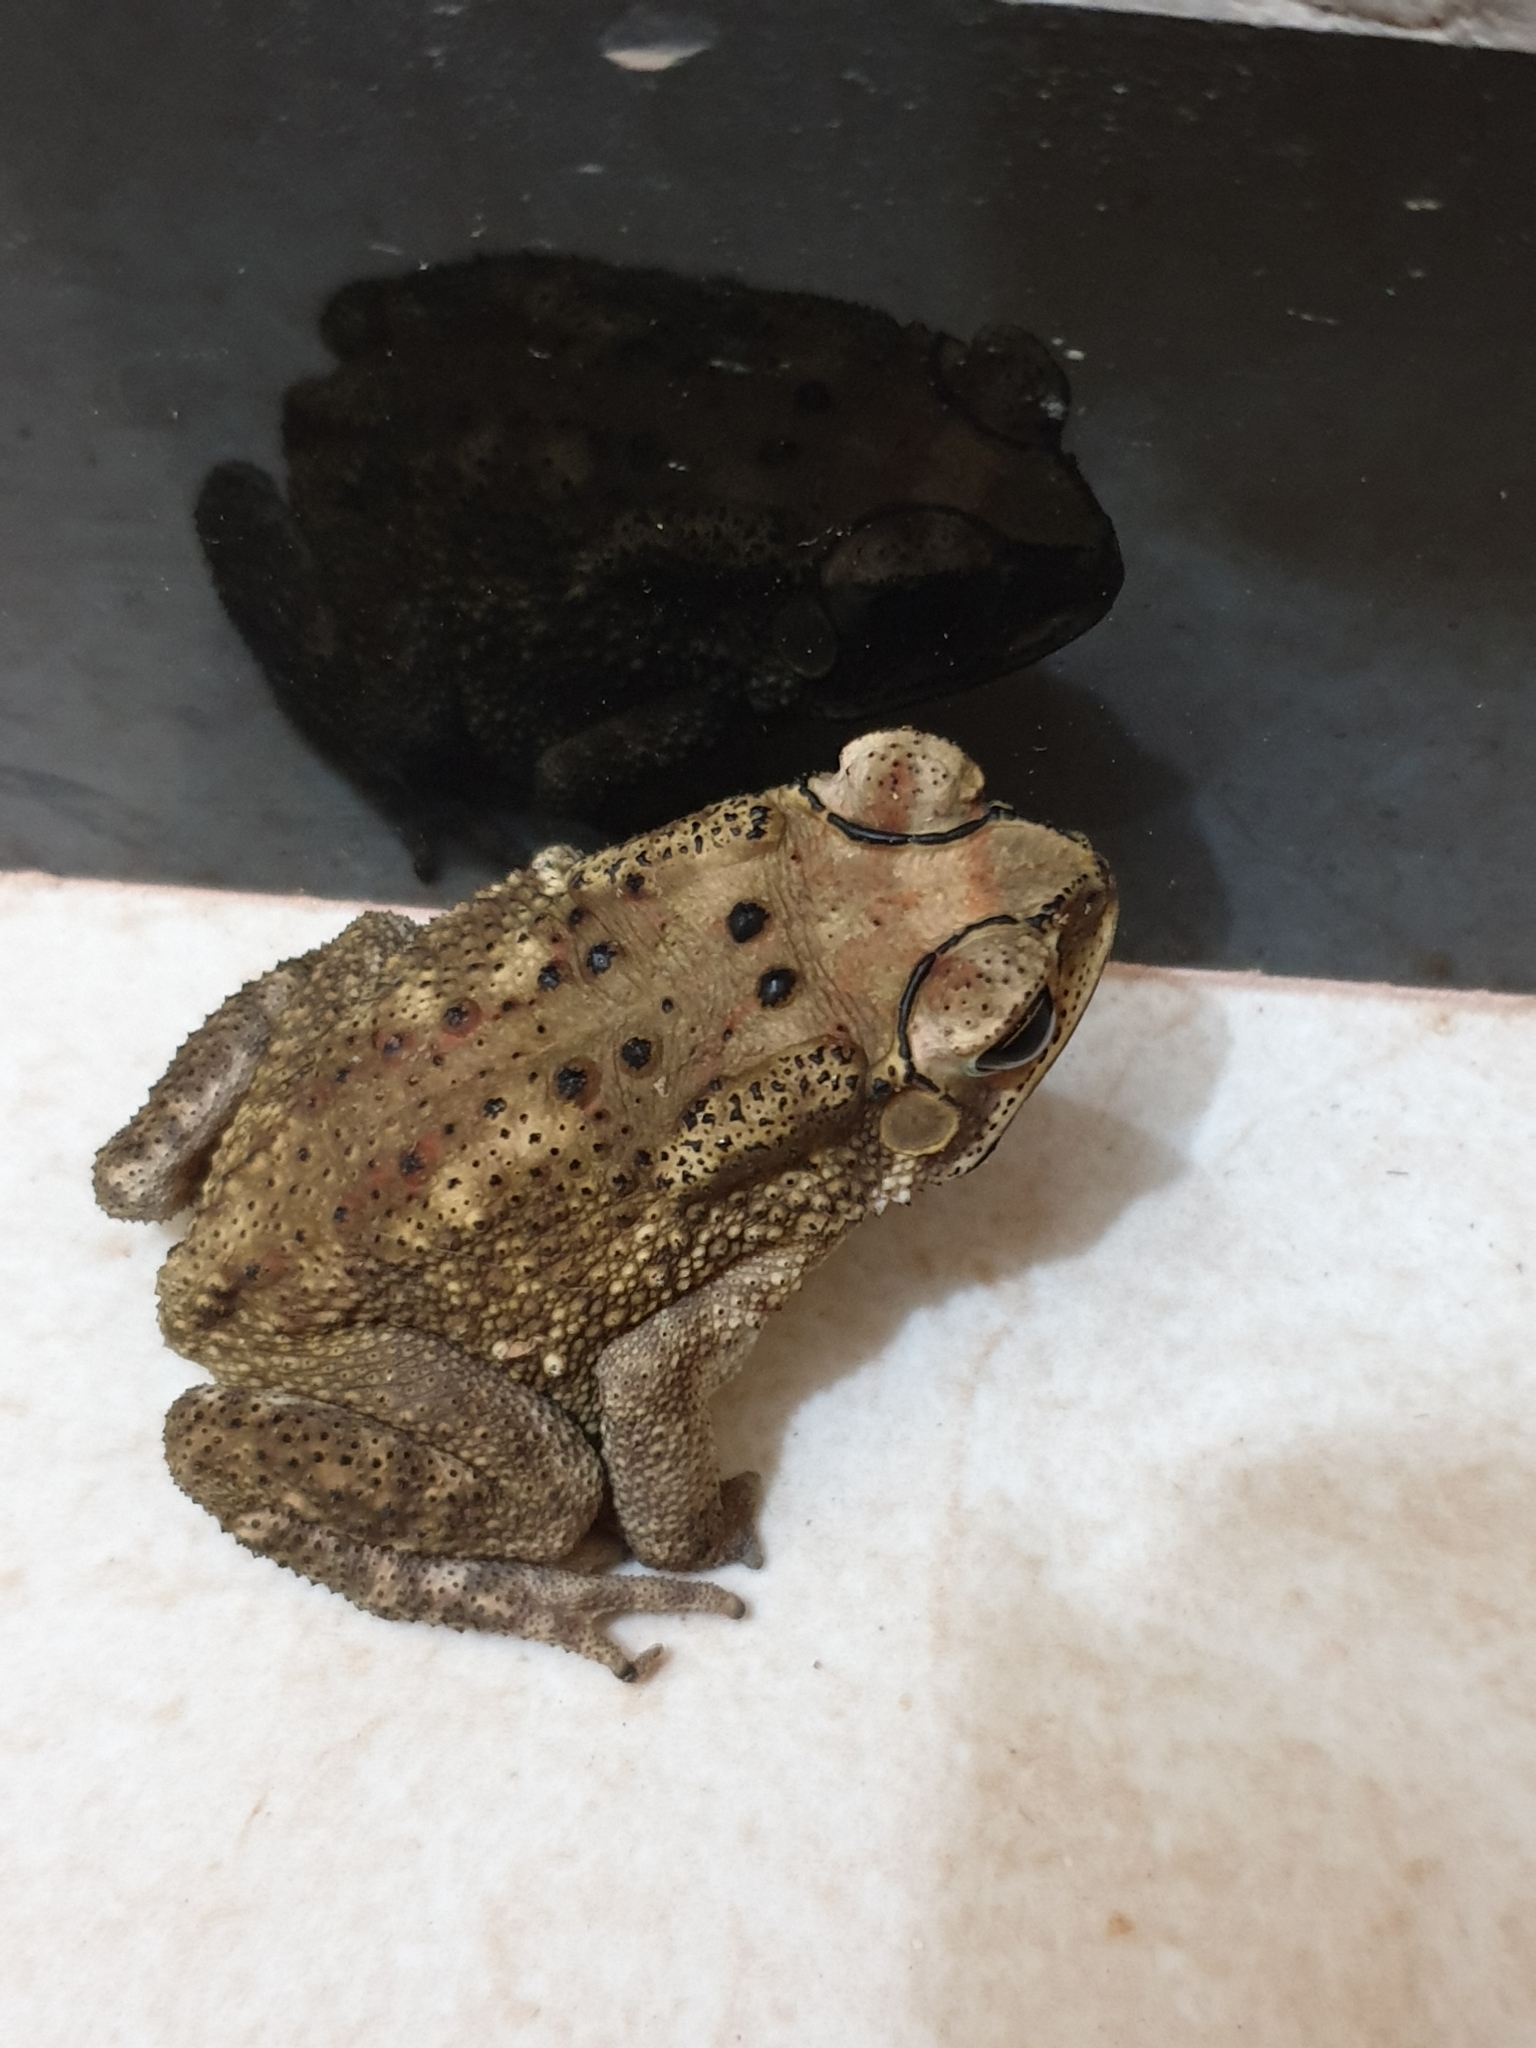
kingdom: Animalia
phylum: Chordata
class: Amphibia
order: Anura
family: Bufonidae
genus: Duttaphrynus
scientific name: Duttaphrynus melanostictus
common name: Common sunda toad
